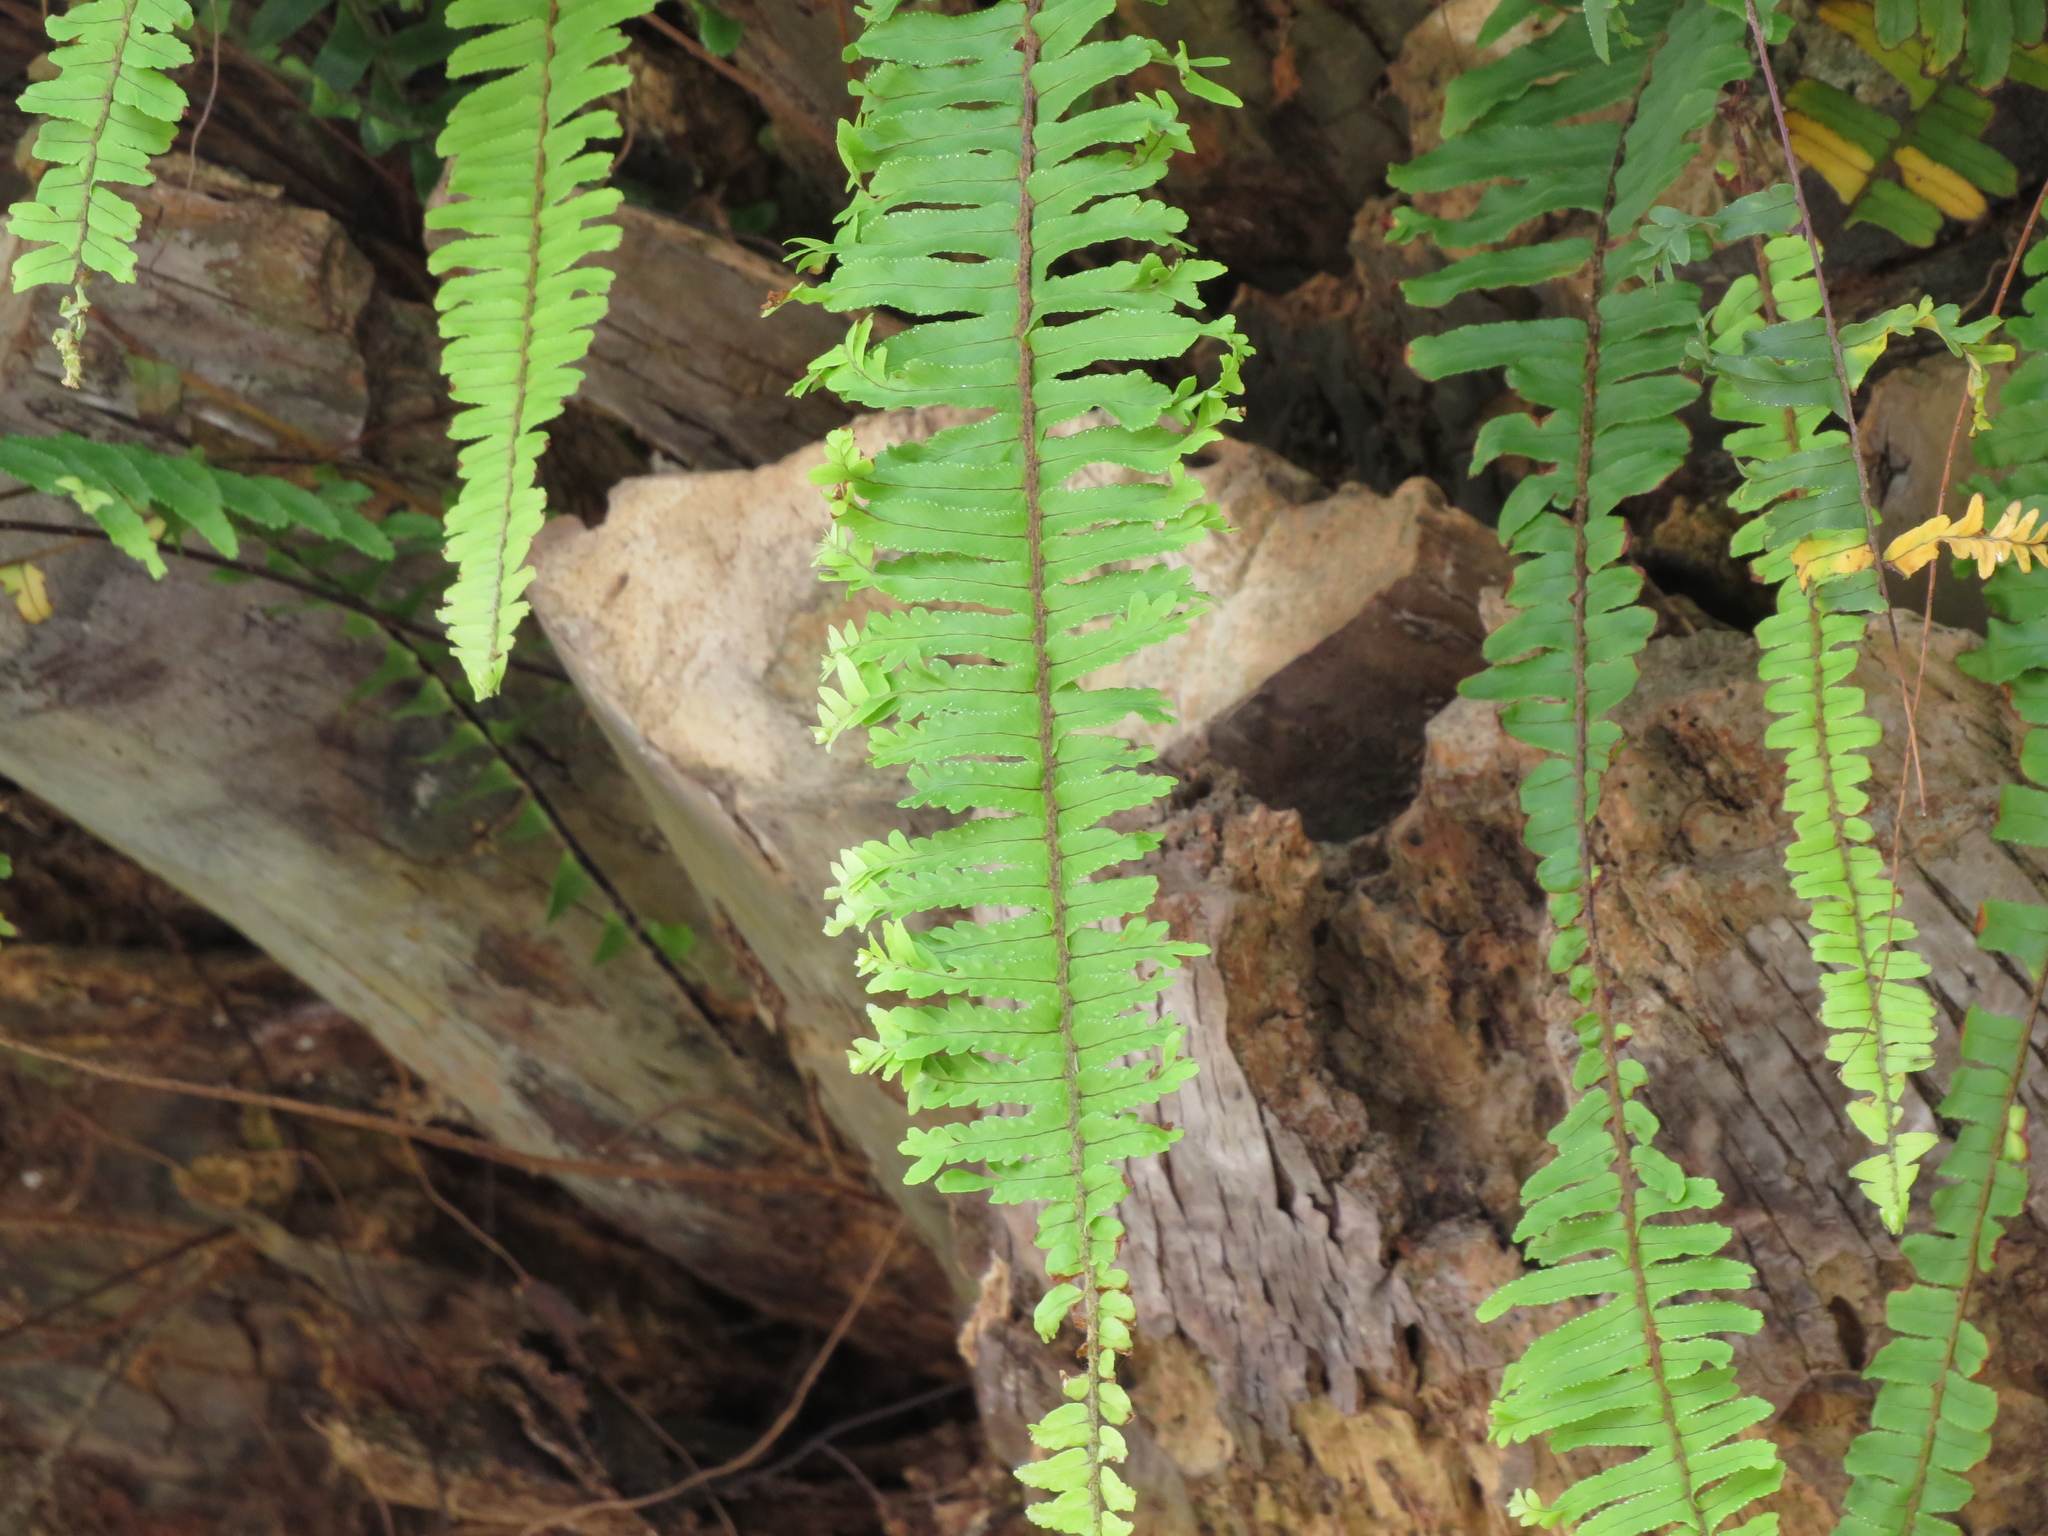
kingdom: Plantae
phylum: Tracheophyta
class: Polypodiopsida
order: Polypodiales
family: Nephrolepidaceae
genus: Nephrolepis
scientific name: Nephrolepis cordifolia
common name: Narrow swordfern
